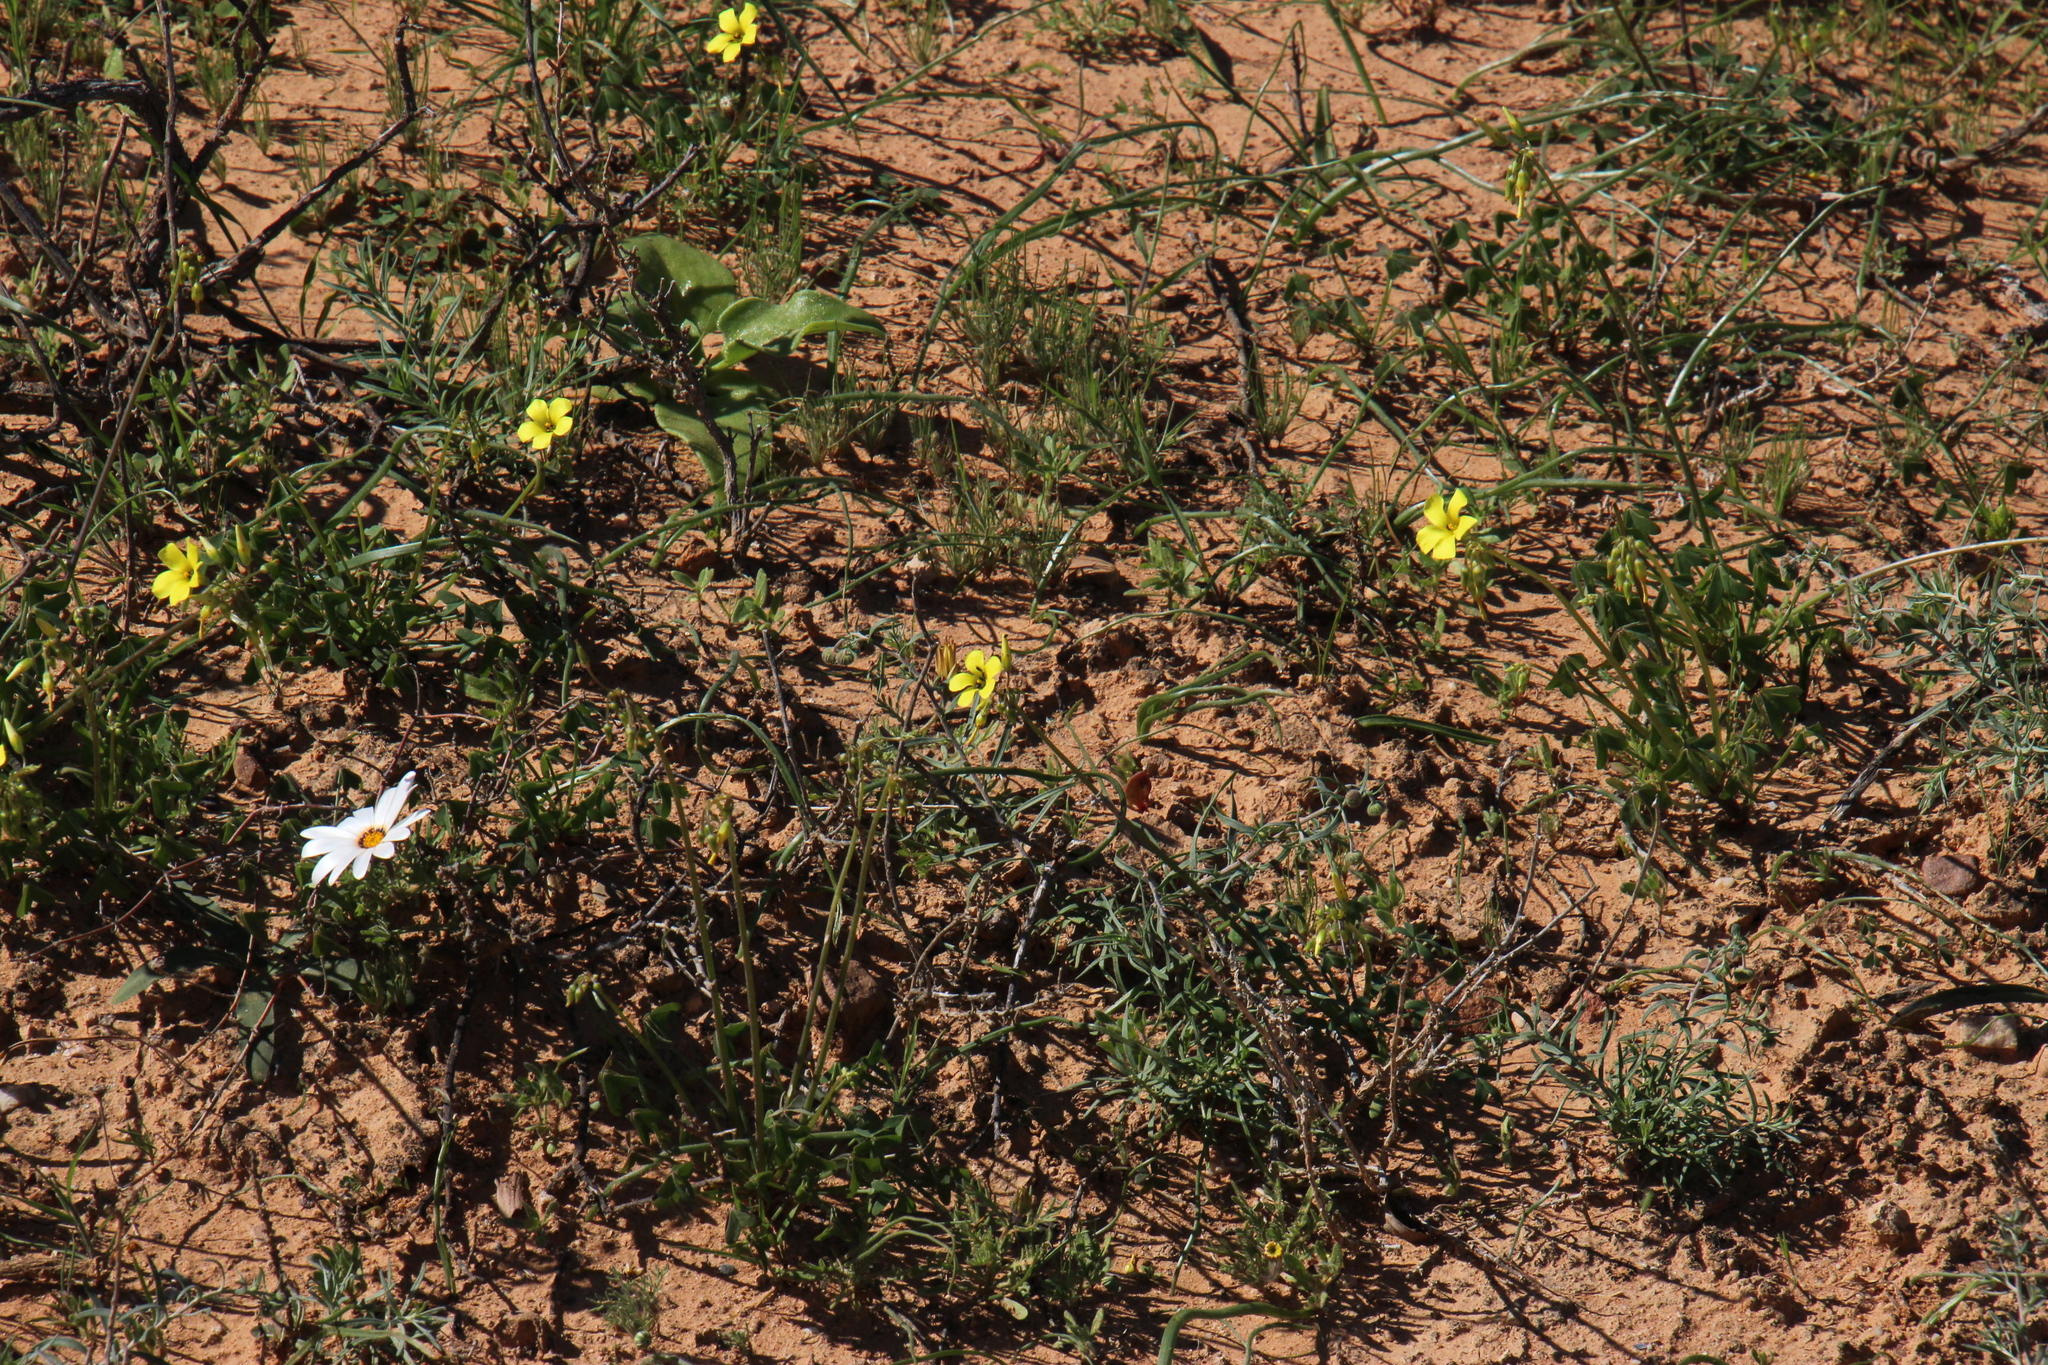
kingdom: Plantae
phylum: Tracheophyta
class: Magnoliopsida
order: Oxalidales
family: Oxalidaceae
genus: Oxalis
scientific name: Oxalis pes-caprae
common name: Bermuda-buttercup
